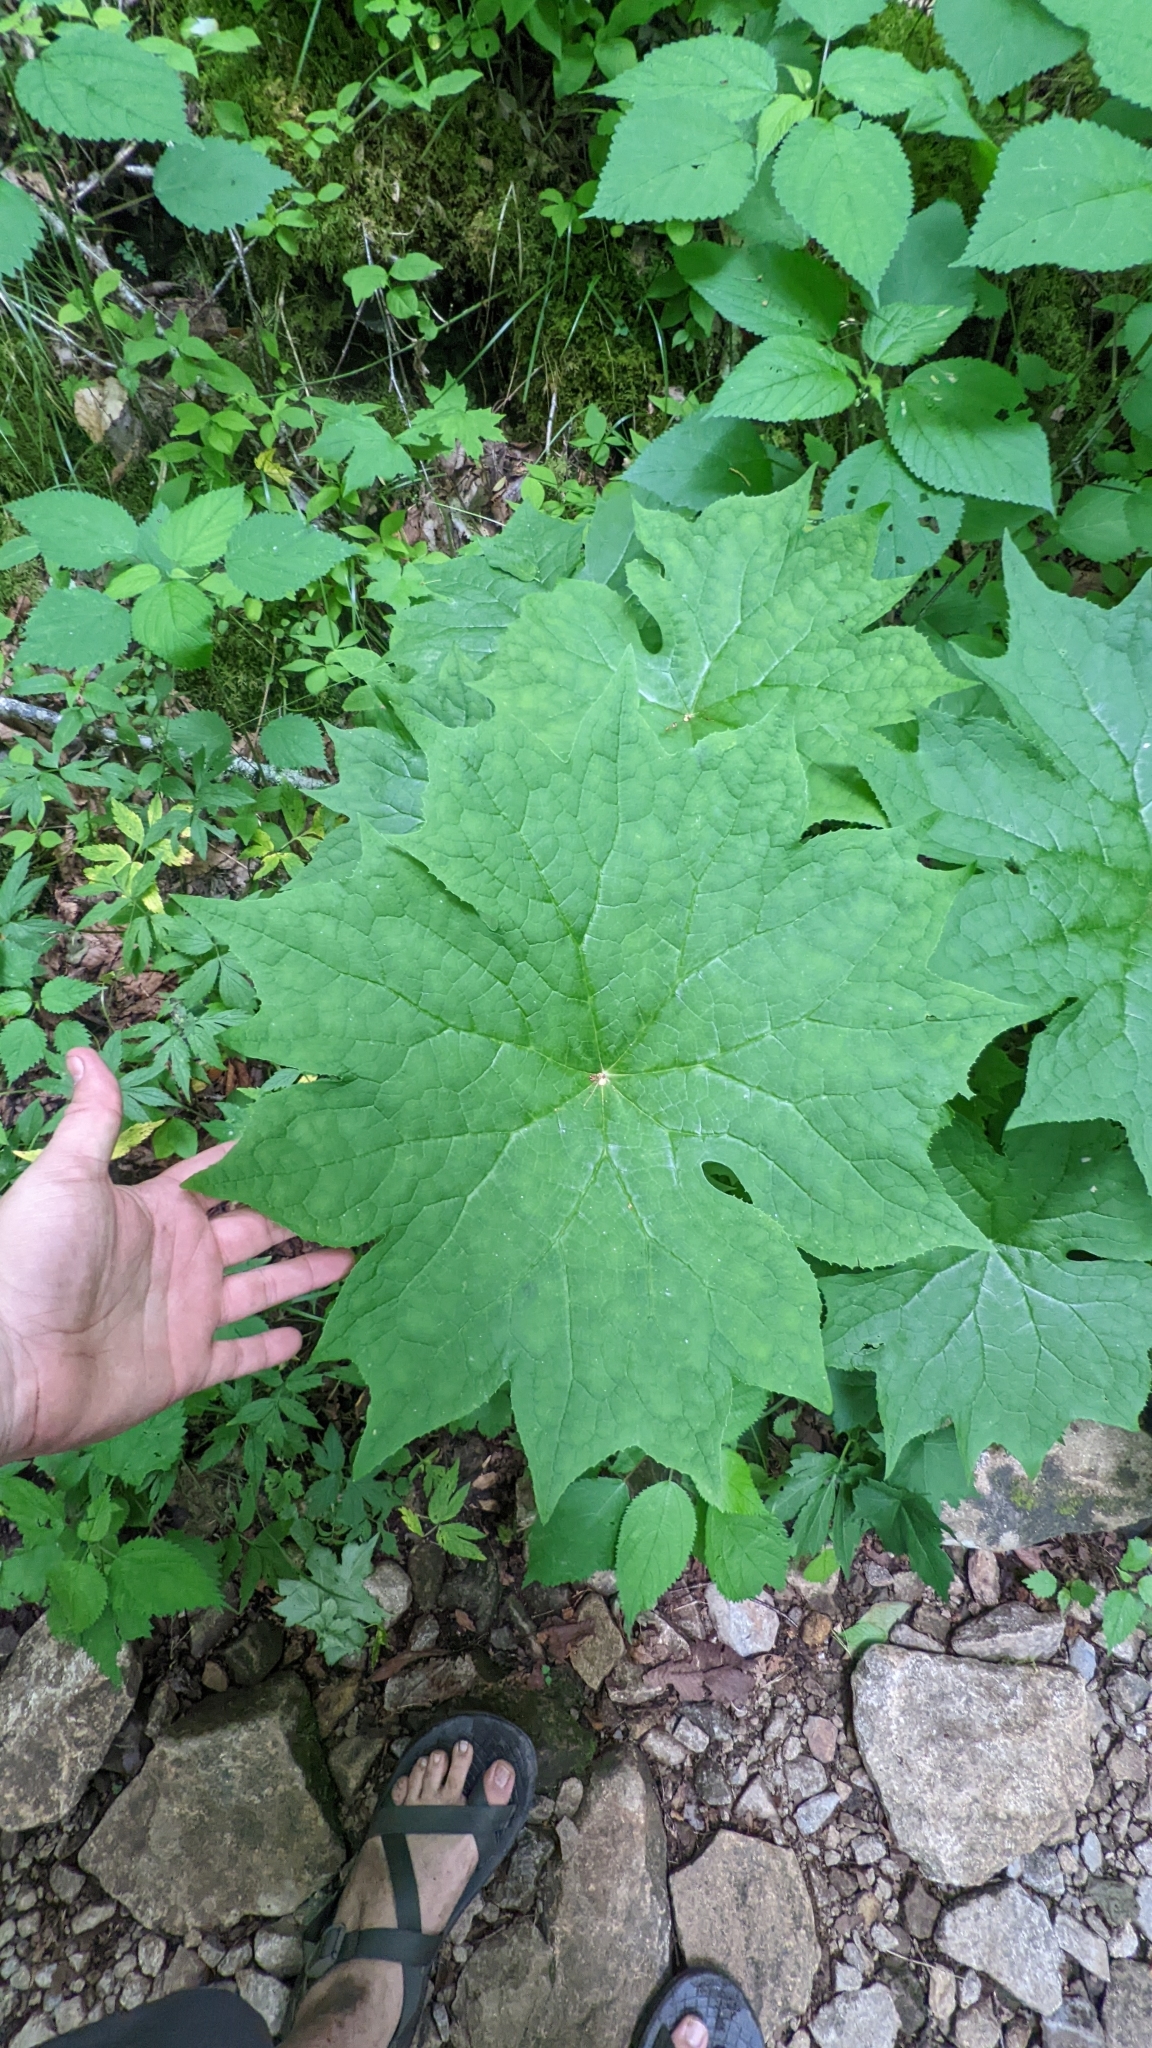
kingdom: Plantae
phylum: Tracheophyta
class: Magnoliopsida
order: Ranunculales
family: Berberidaceae
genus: Diphylleia
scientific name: Diphylleia cymosa
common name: Umbrella-leaf
